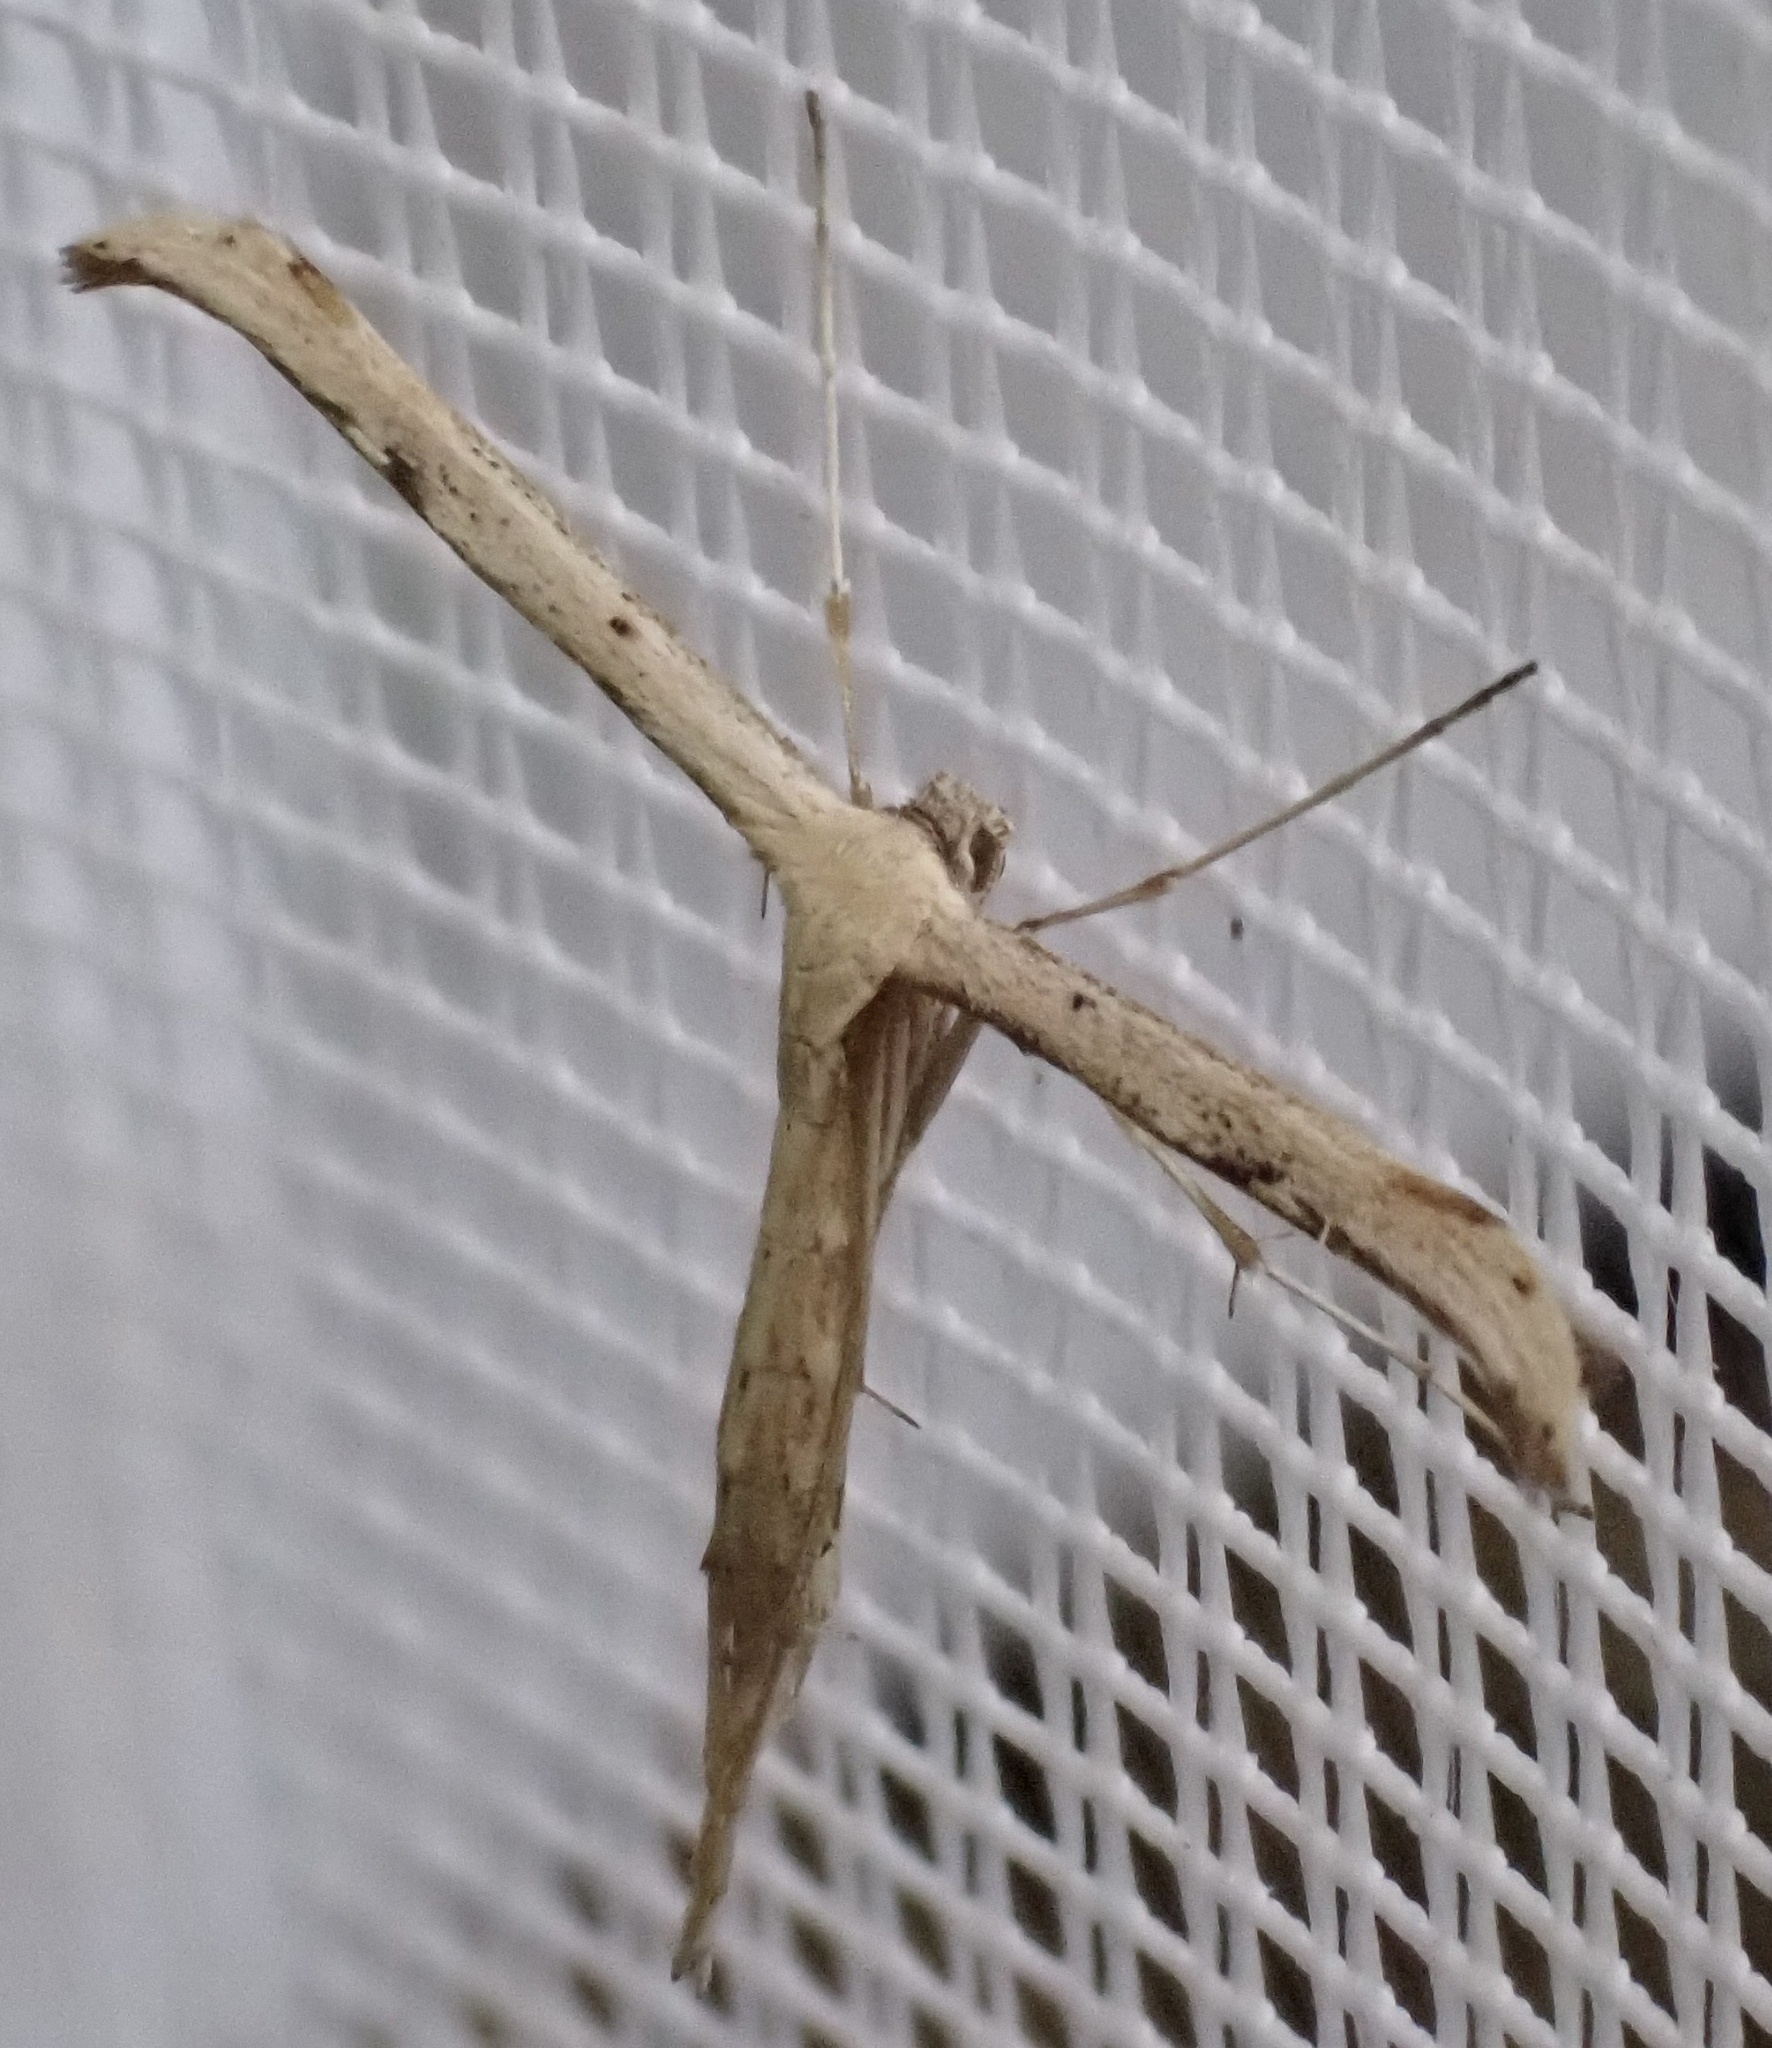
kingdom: Animalia
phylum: Arthropoda
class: Insecta
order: Lepidoptera
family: Pterophoridae
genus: Emmelina
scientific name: Emmelina monodactyla
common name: Common plume
